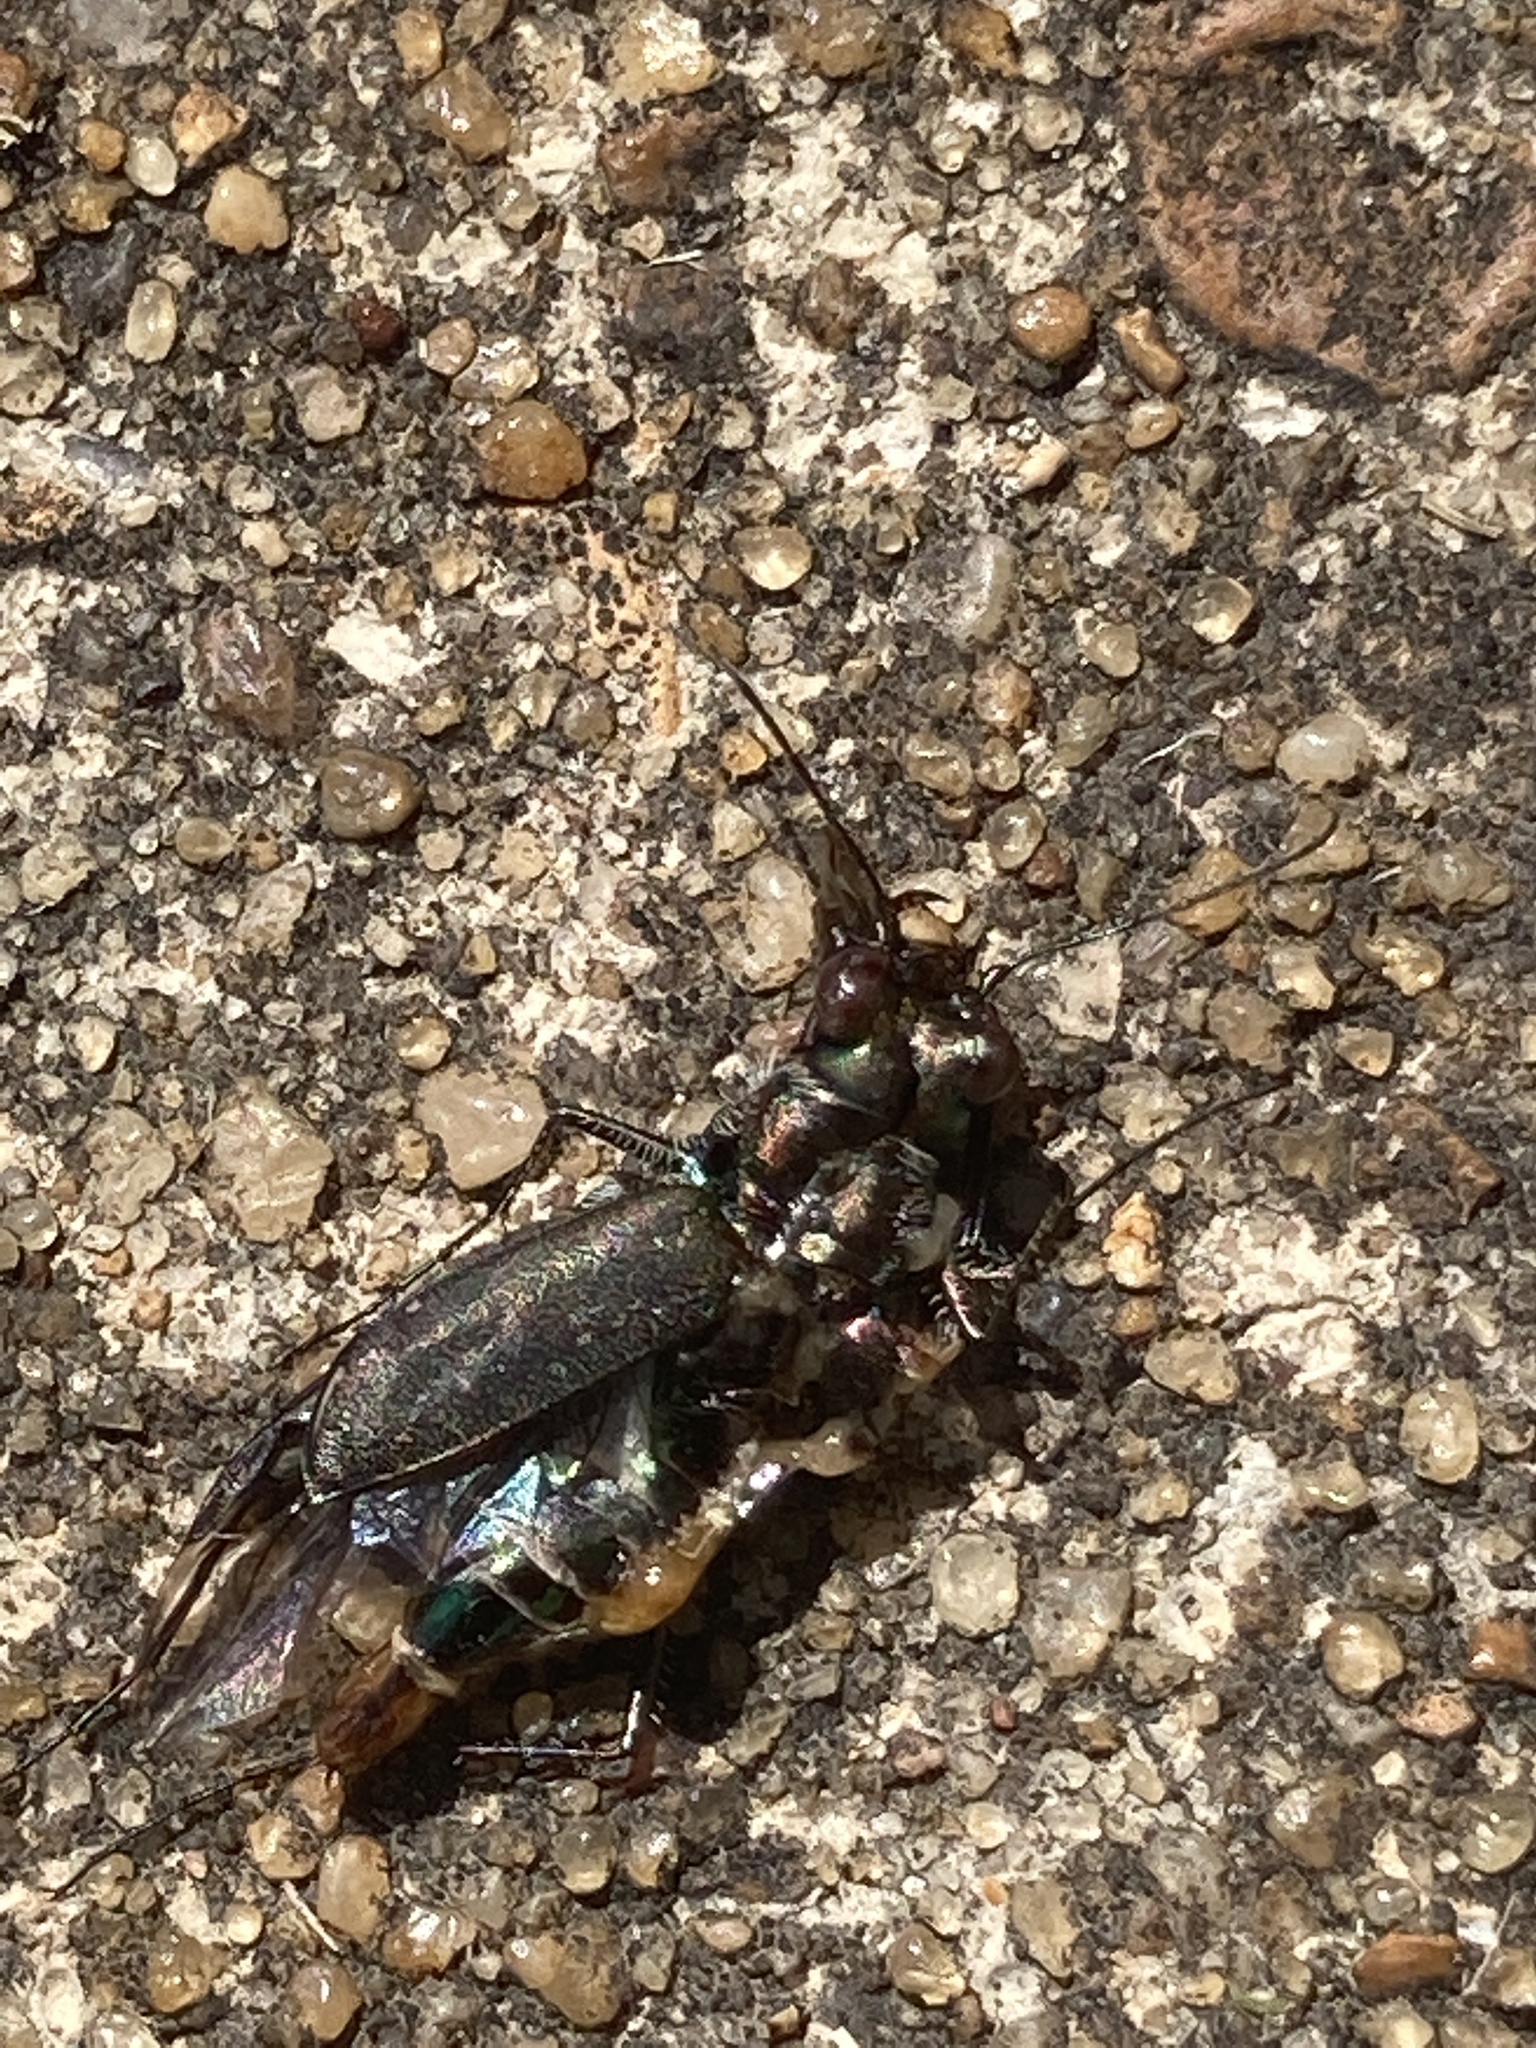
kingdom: Animalia
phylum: Arthropoda
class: Insecta
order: Coleoptera
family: Carabidae
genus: Cicindela
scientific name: Cicindela punctulata
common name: Punctured tiger beetle
